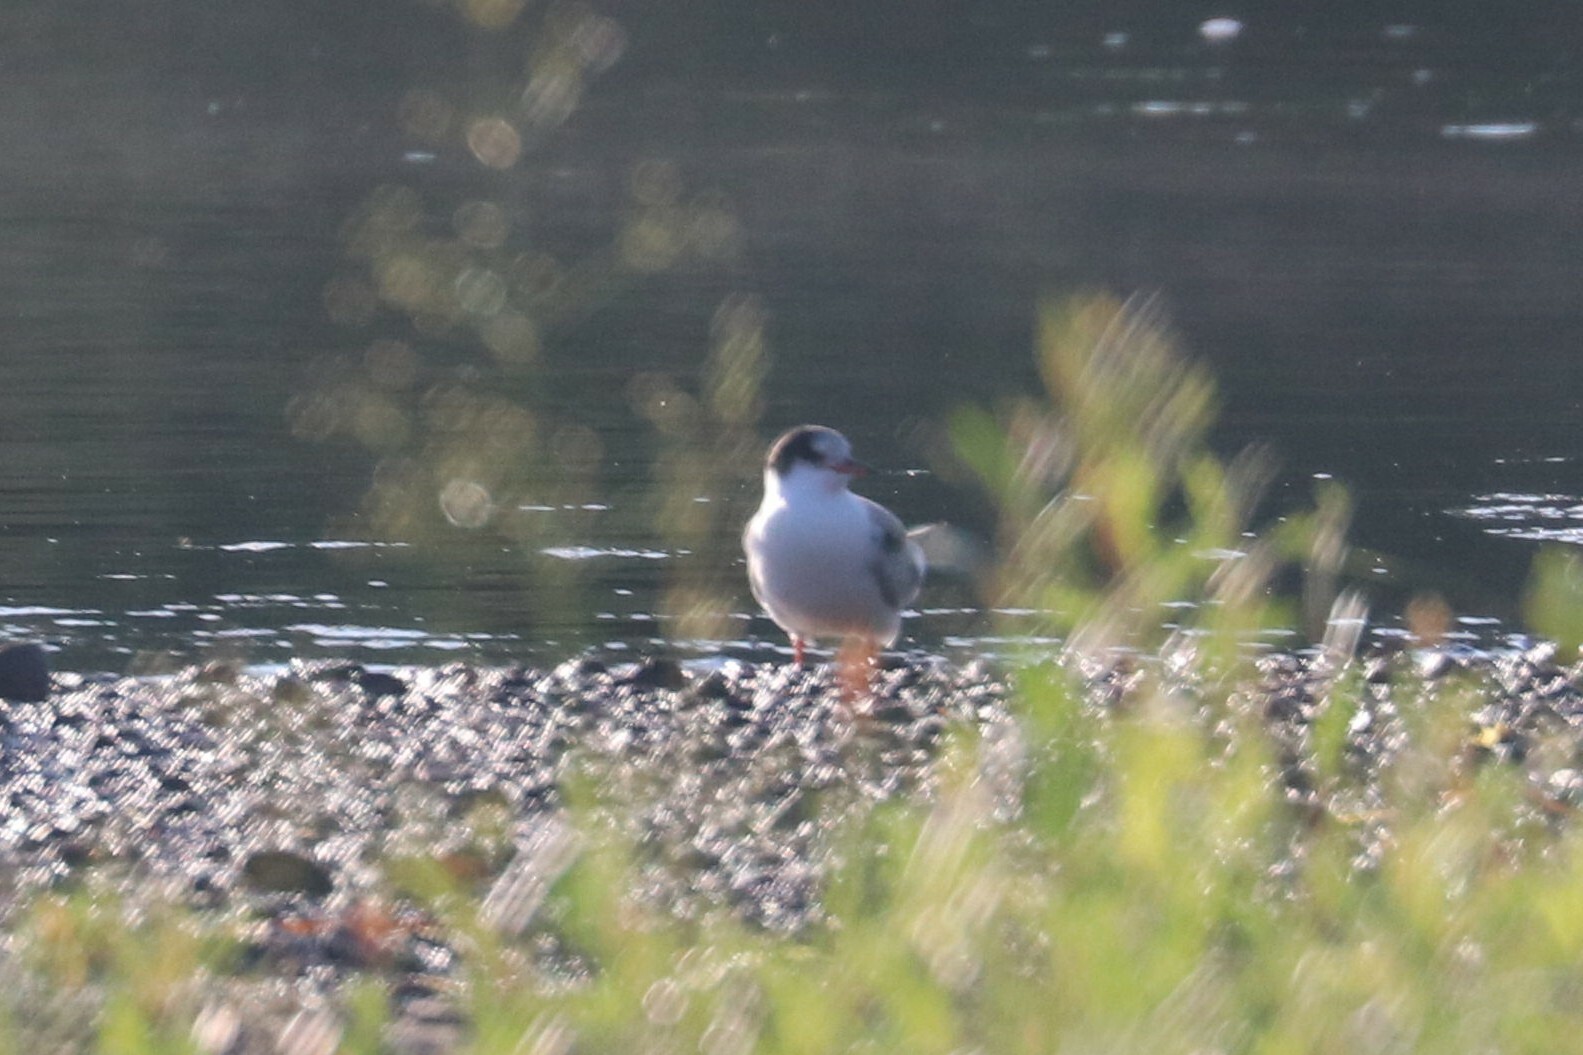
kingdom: Animalia
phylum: Chordata
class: Aves
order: Charadriiformes
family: Laridae
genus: Sterna
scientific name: Sterna hirundo
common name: Common tern
